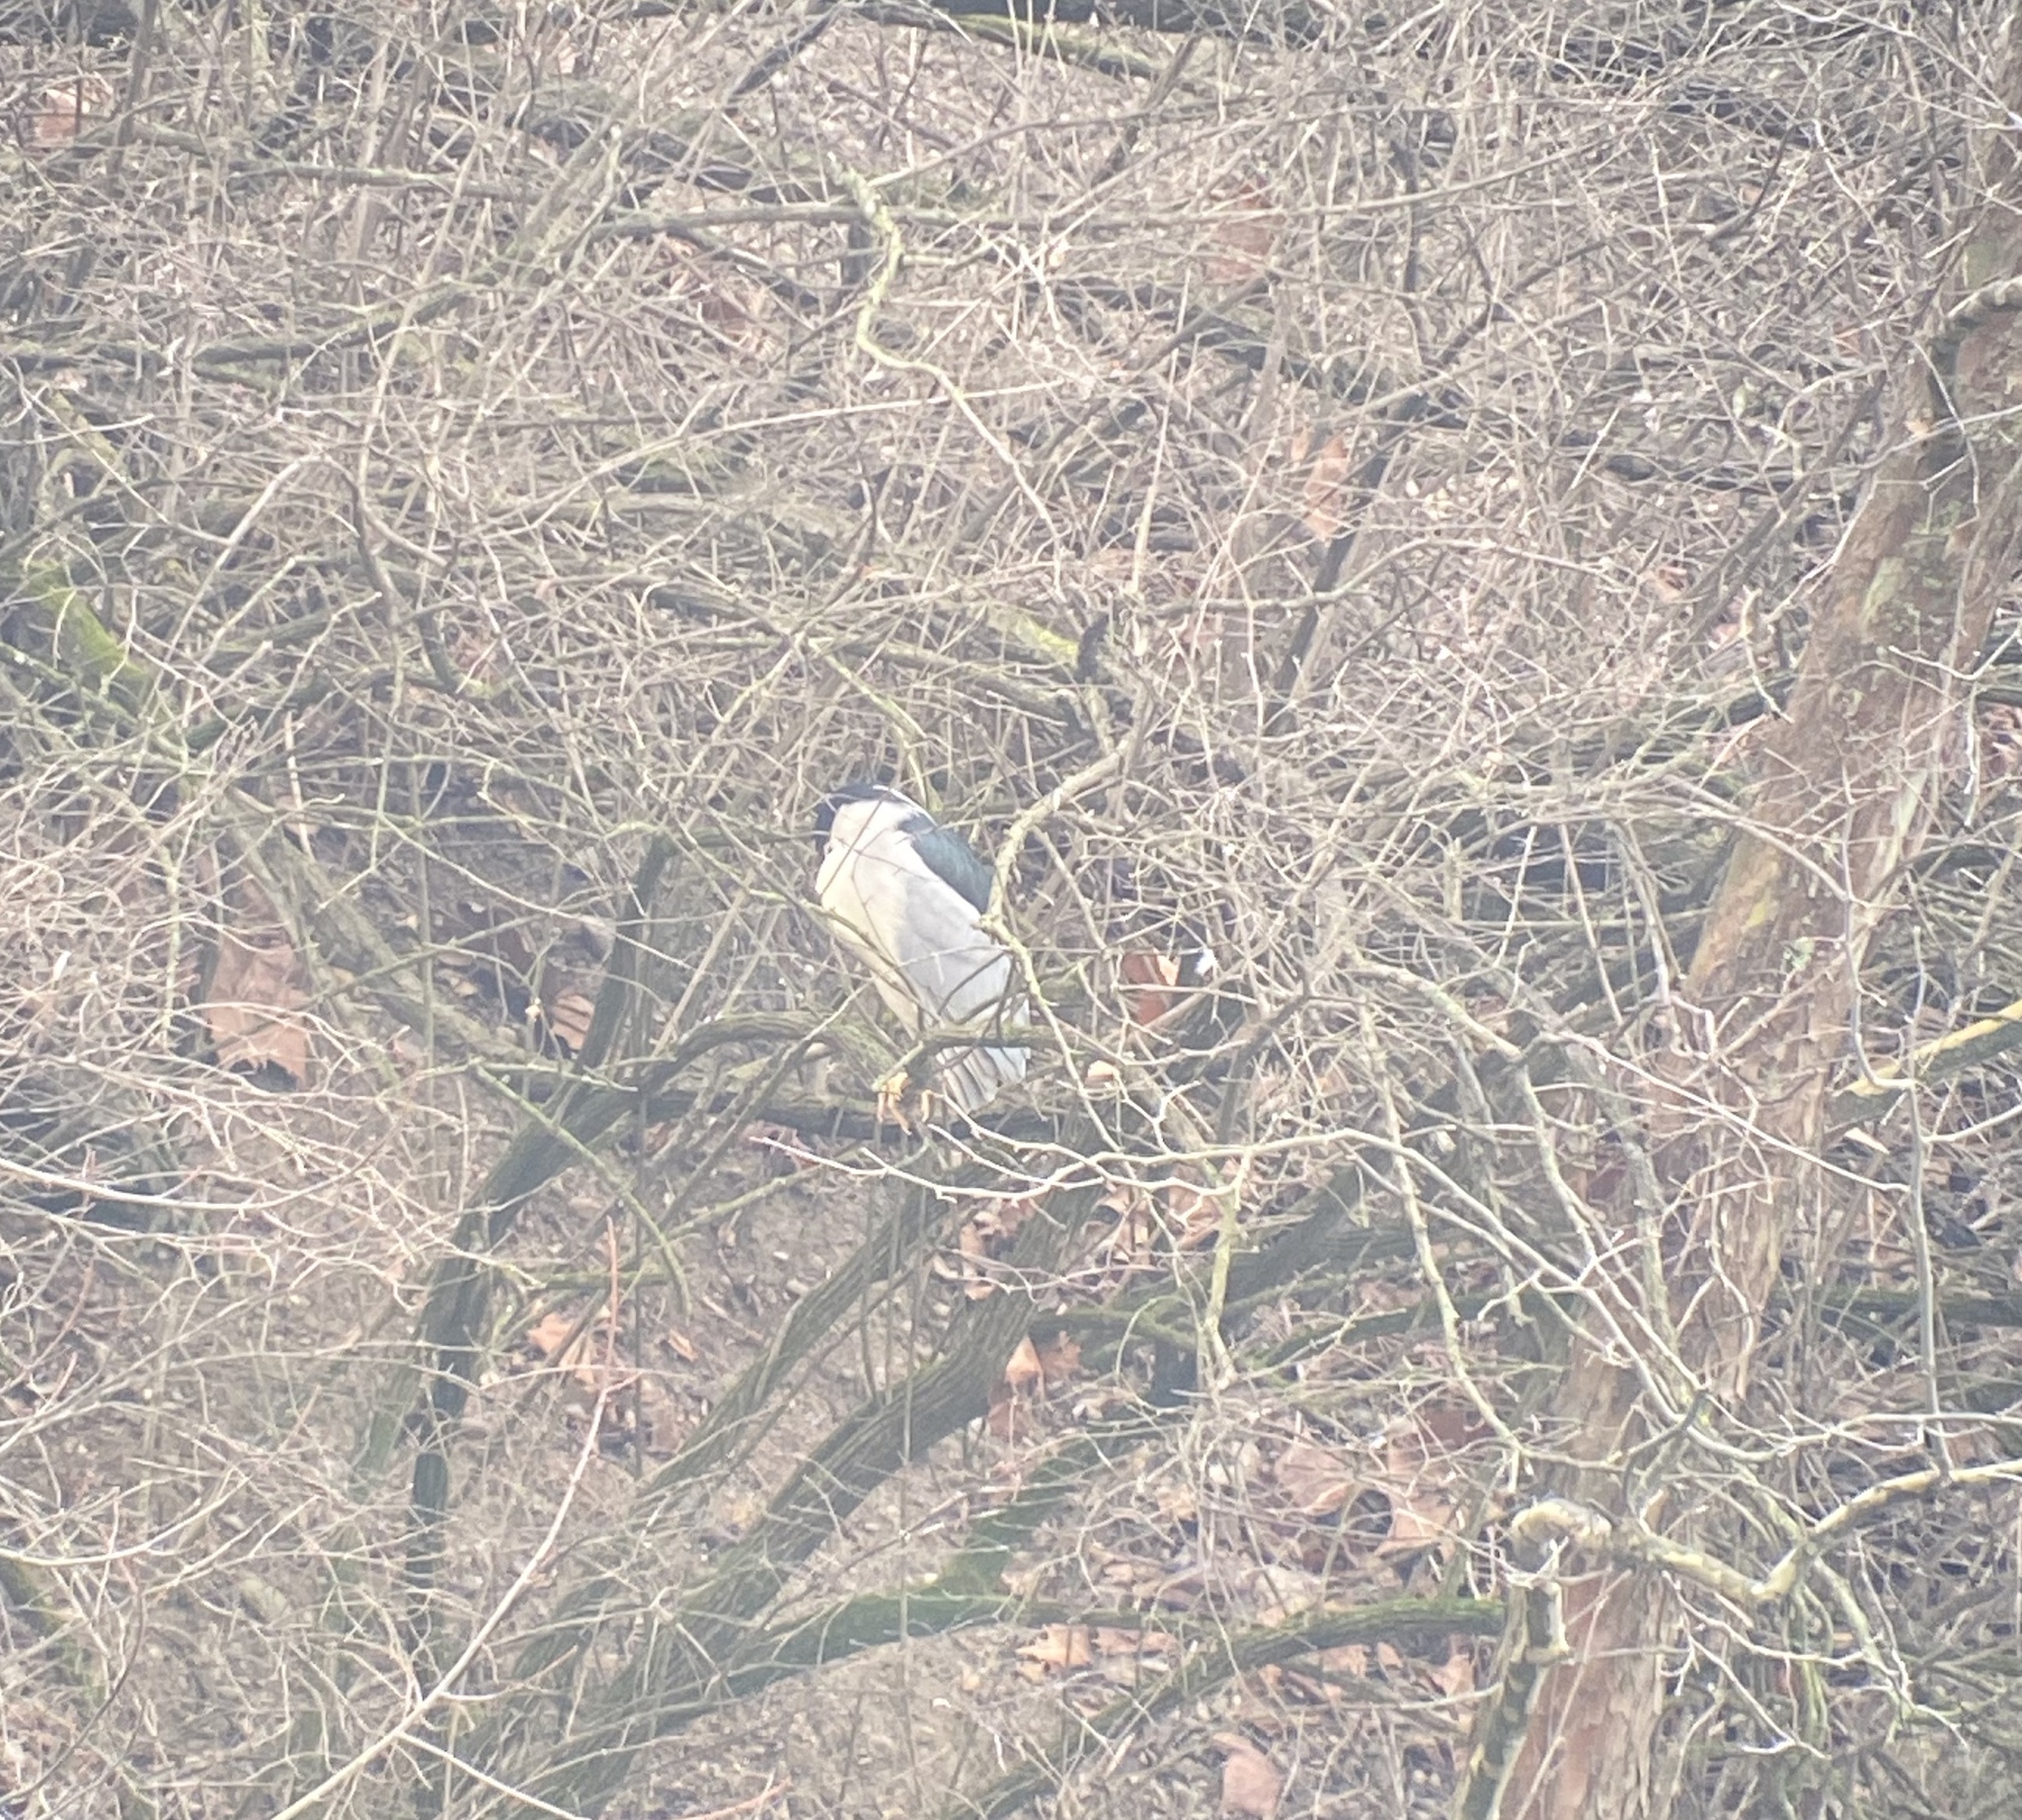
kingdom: Animalia
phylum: Chordata
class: Aves
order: Pelecaniformes
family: Ardeidae
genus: Nycticorax
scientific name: Nycticorax nycticorax
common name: Black-crowned night heron
